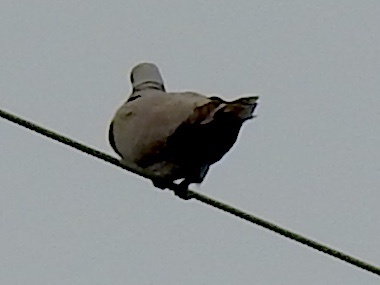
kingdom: Animalia
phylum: Chordata
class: Aves
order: Columbiformes
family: Columbidae
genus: Streptopelia
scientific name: Streptopelia decaocto
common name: Eurasian collared dove
